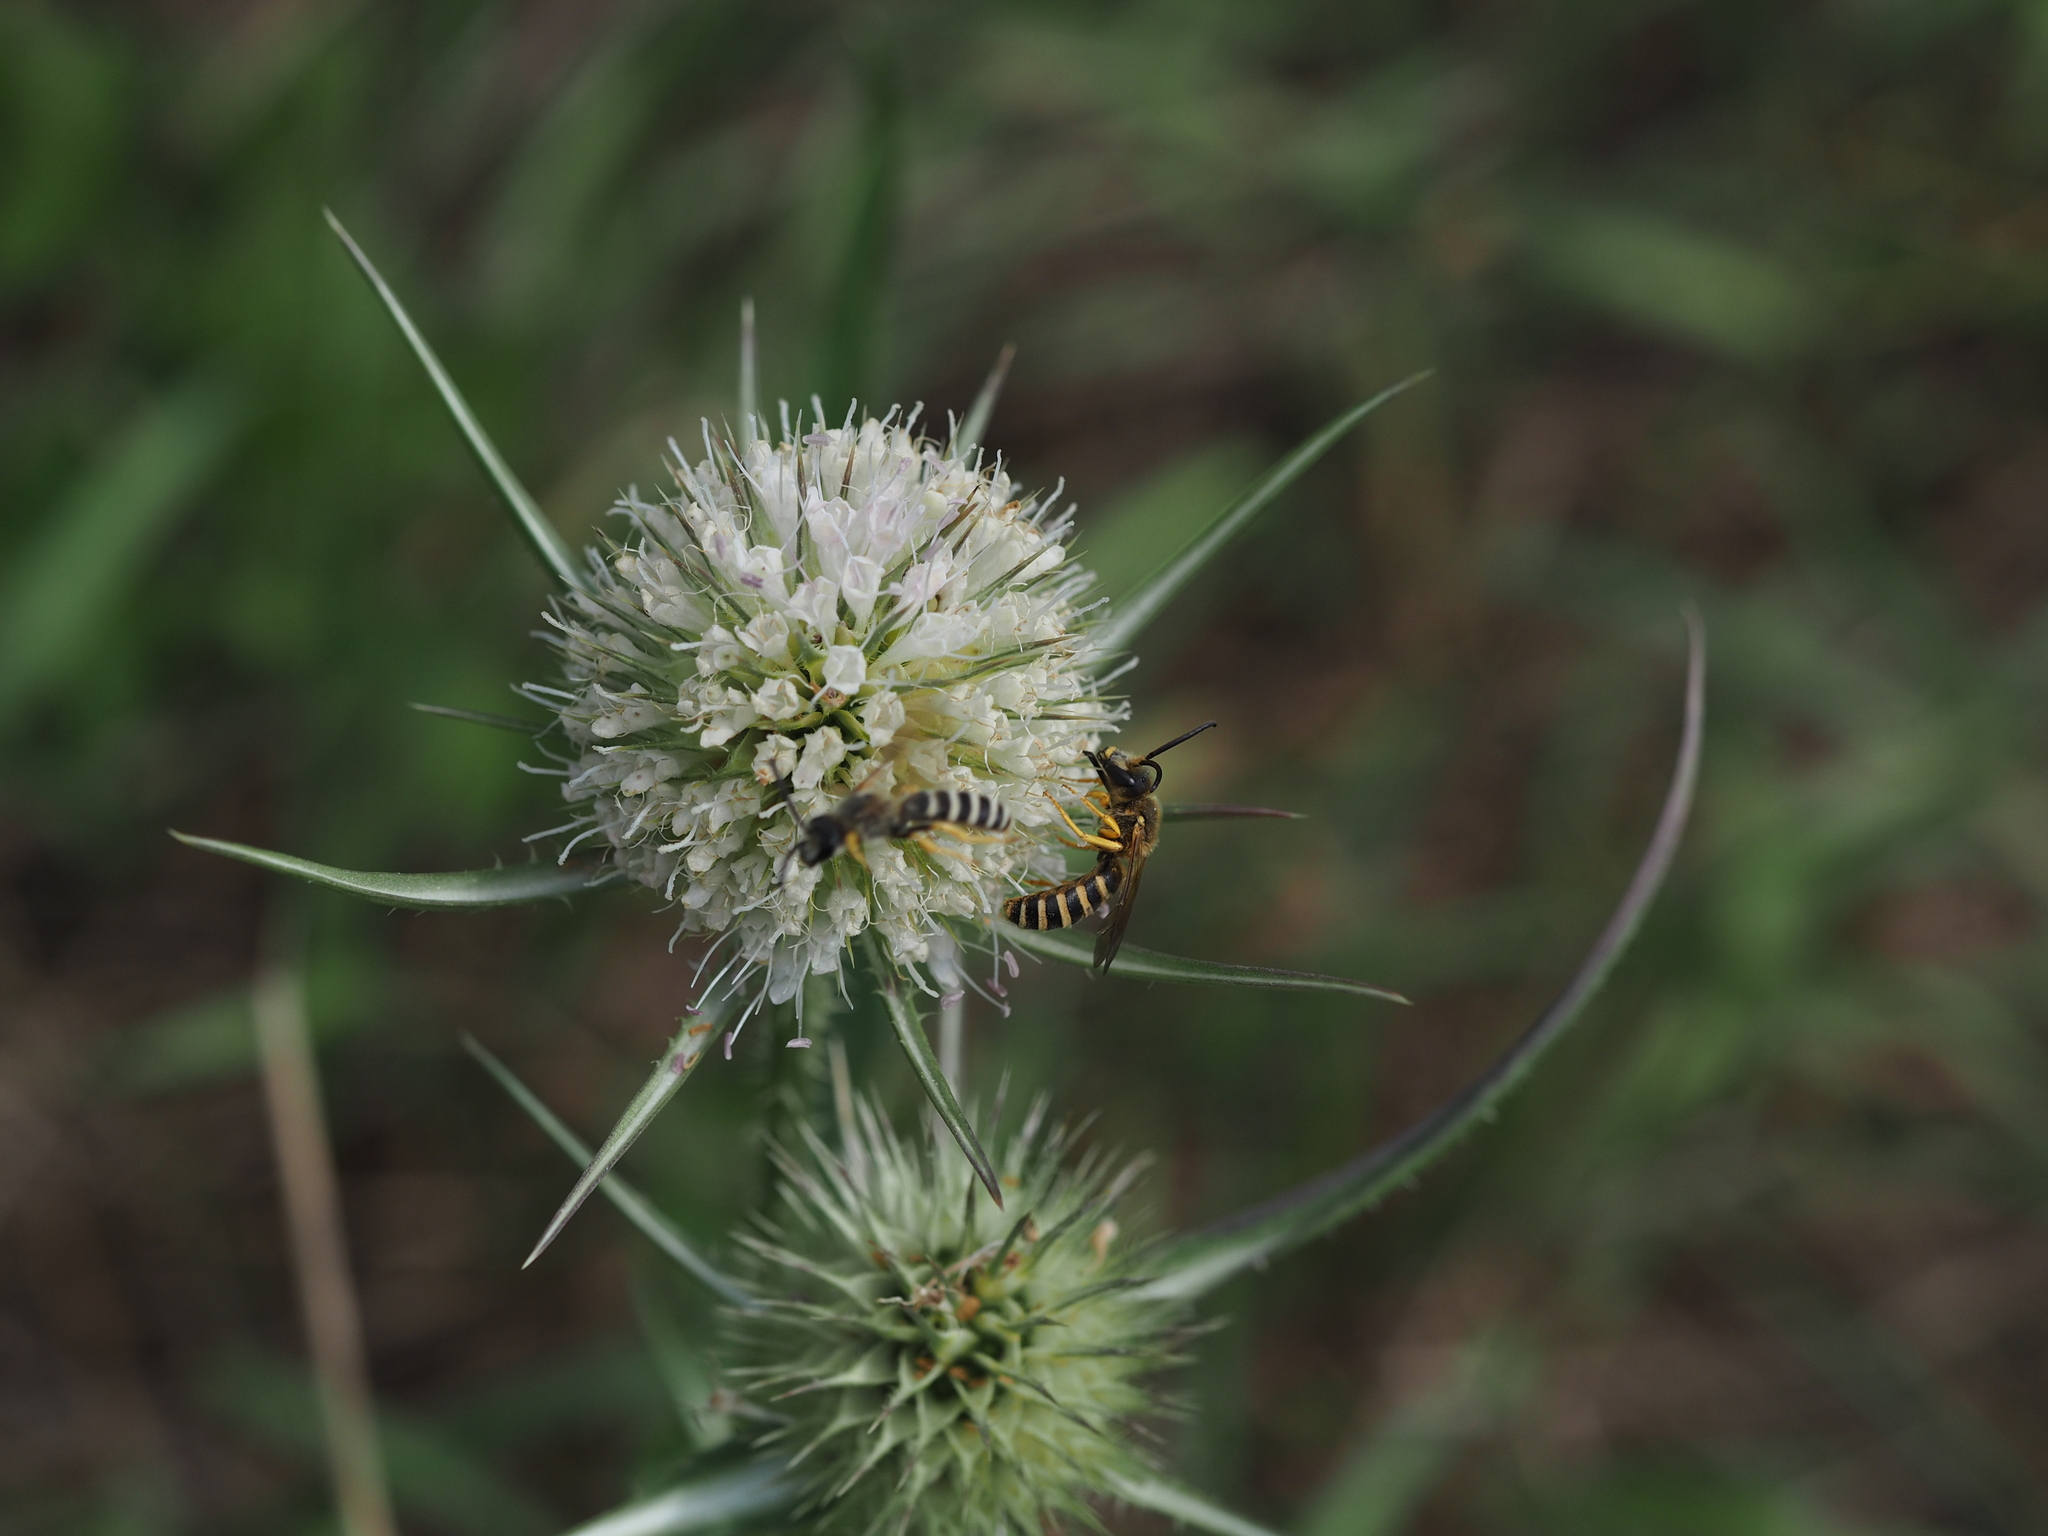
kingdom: Animalia
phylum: Arthropoda
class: Insecta
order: Hymenoptera
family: Halictidae
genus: Halictus
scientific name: Halictus scabiosae
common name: Great banded furrow bee
